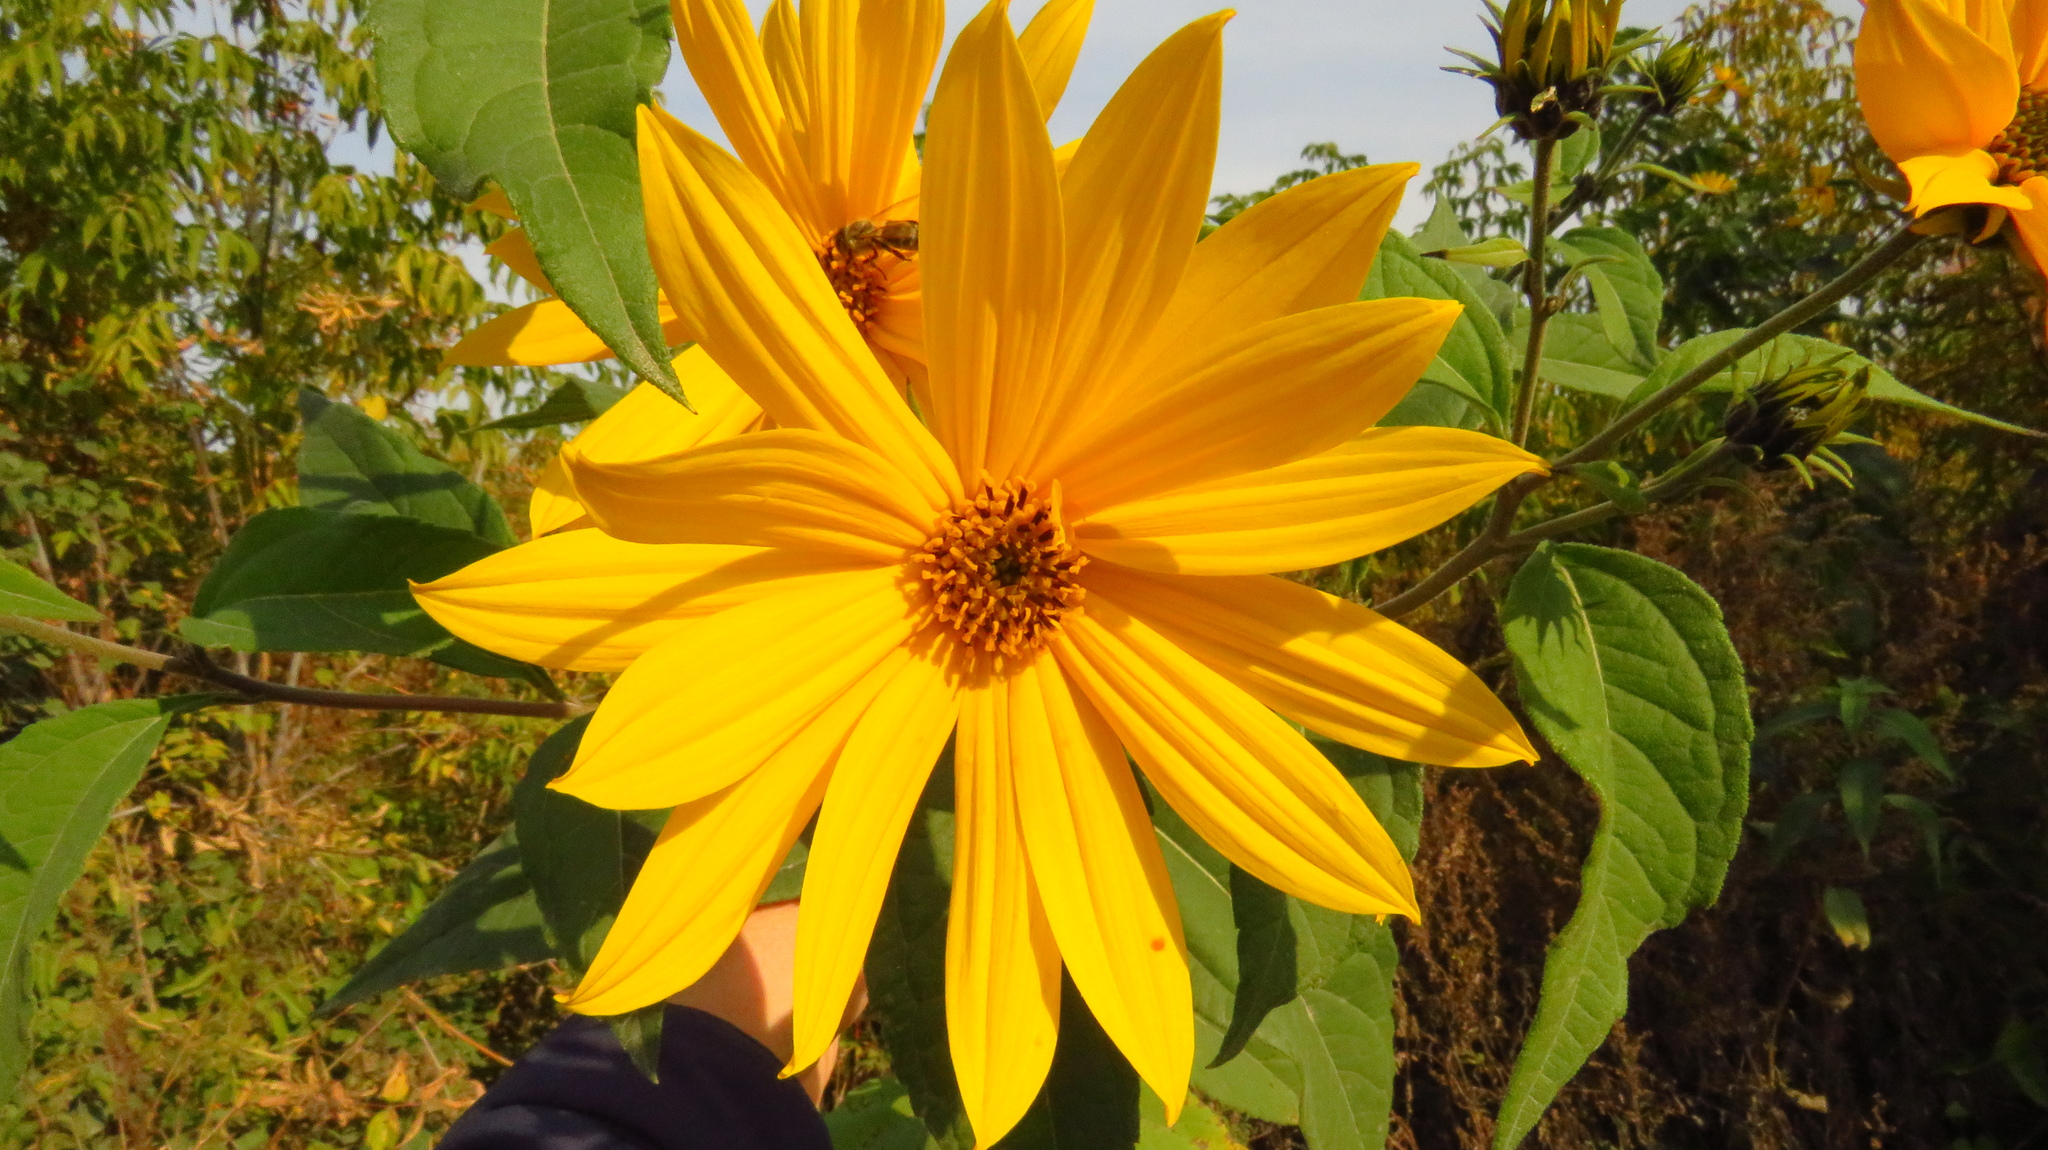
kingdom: Plantae
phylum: Tracheophyta
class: Magnoliopsida
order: Asterales
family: Asteraceae
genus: Helianthus
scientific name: Helianthus tuberosus
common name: Jerusalem artichoke
